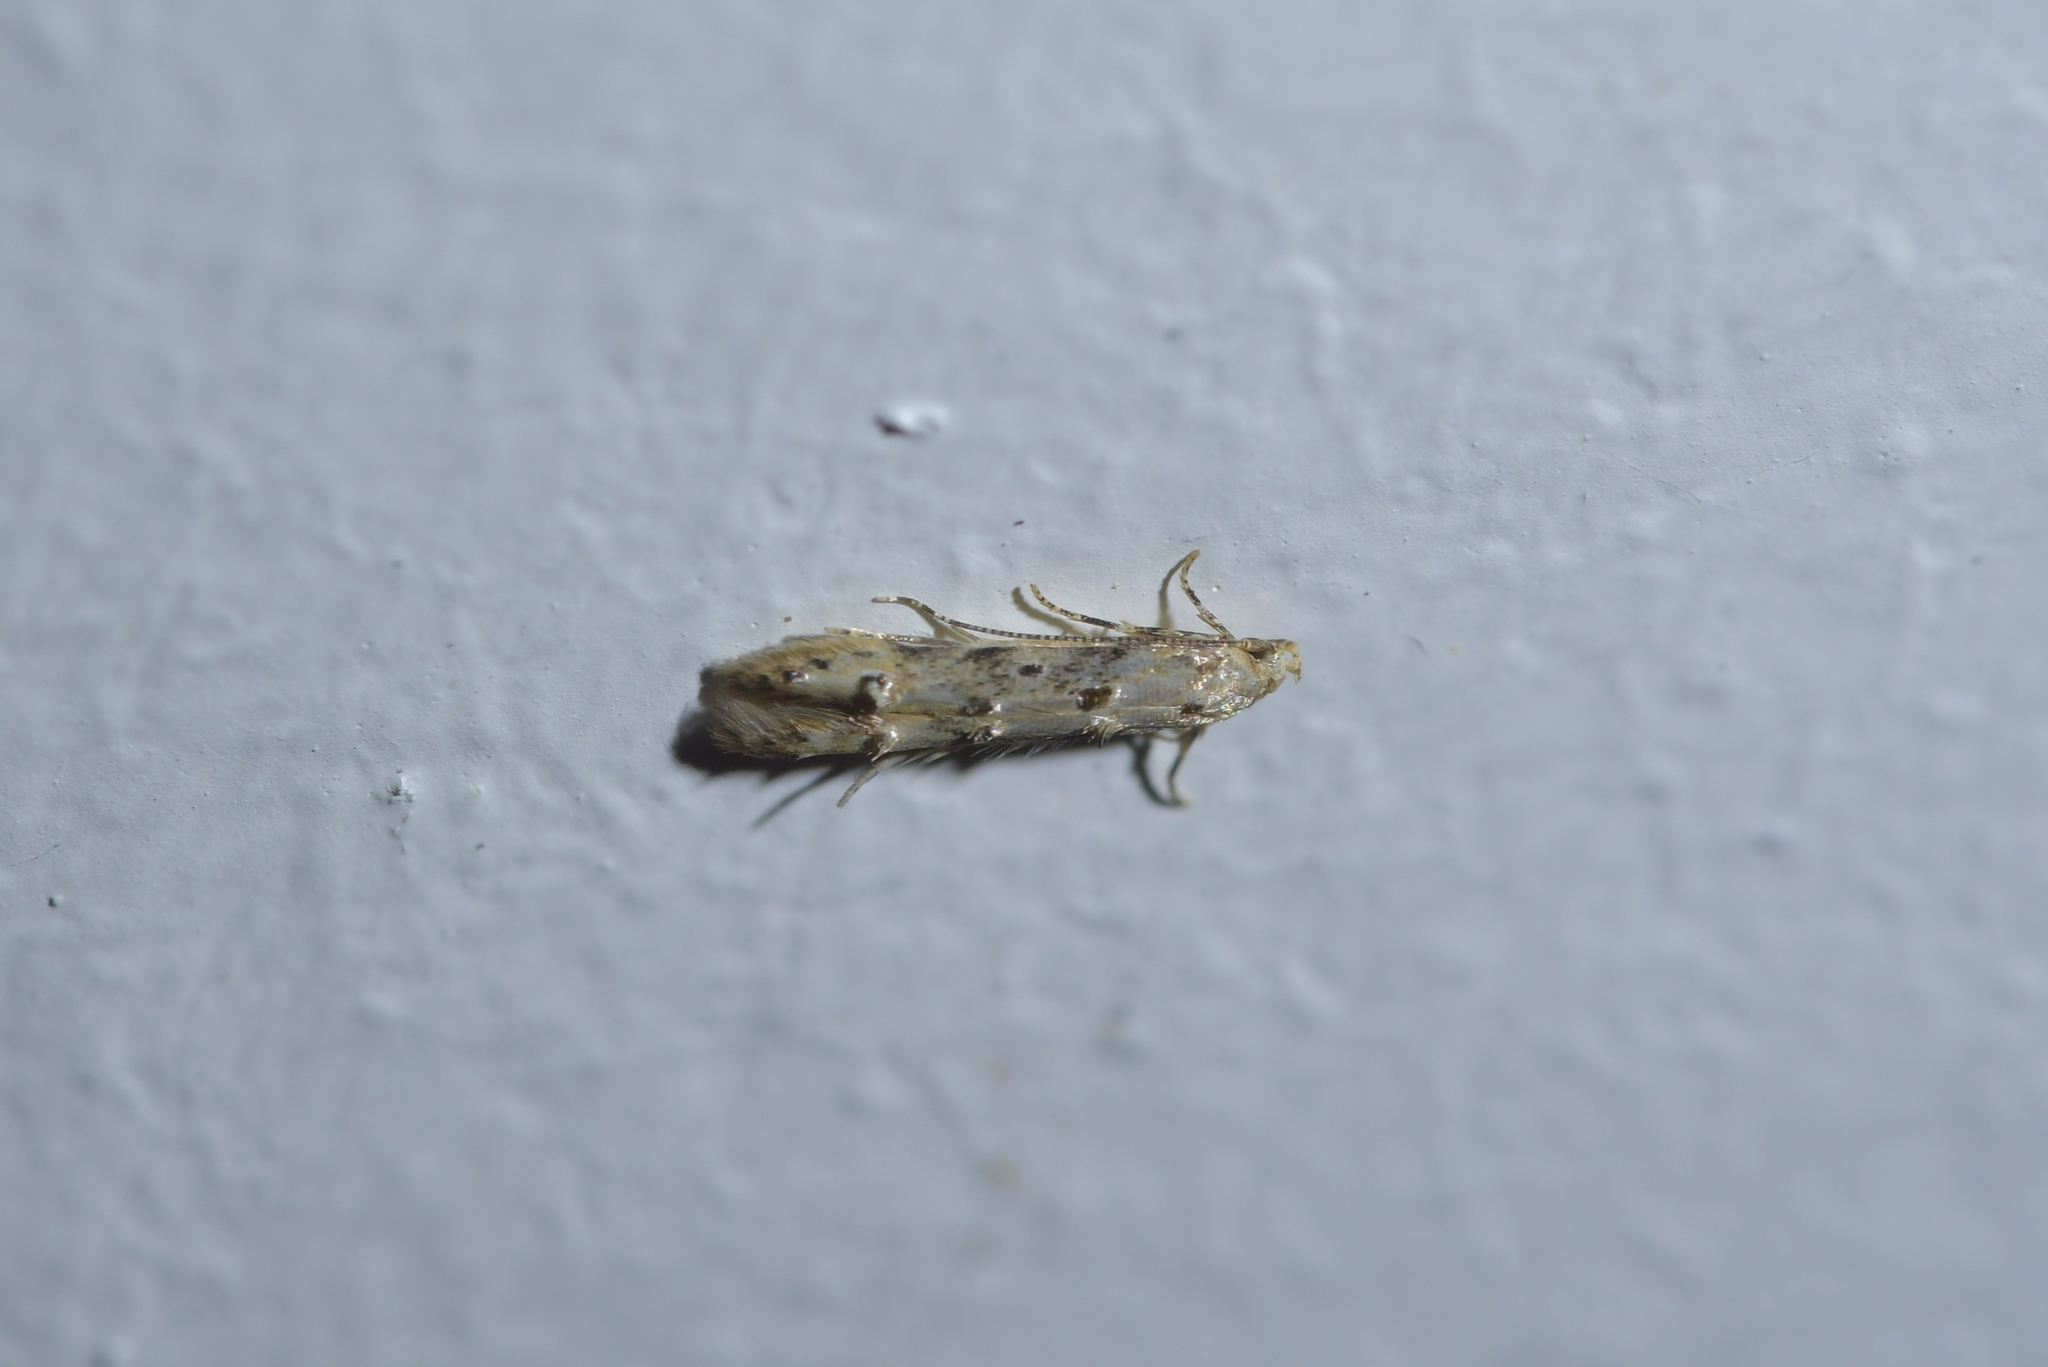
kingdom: Animalia
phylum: Arthropoda
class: Insecta
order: Lepidoptera
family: Elachistidae
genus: Microcolona
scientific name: Microcolona limodes
